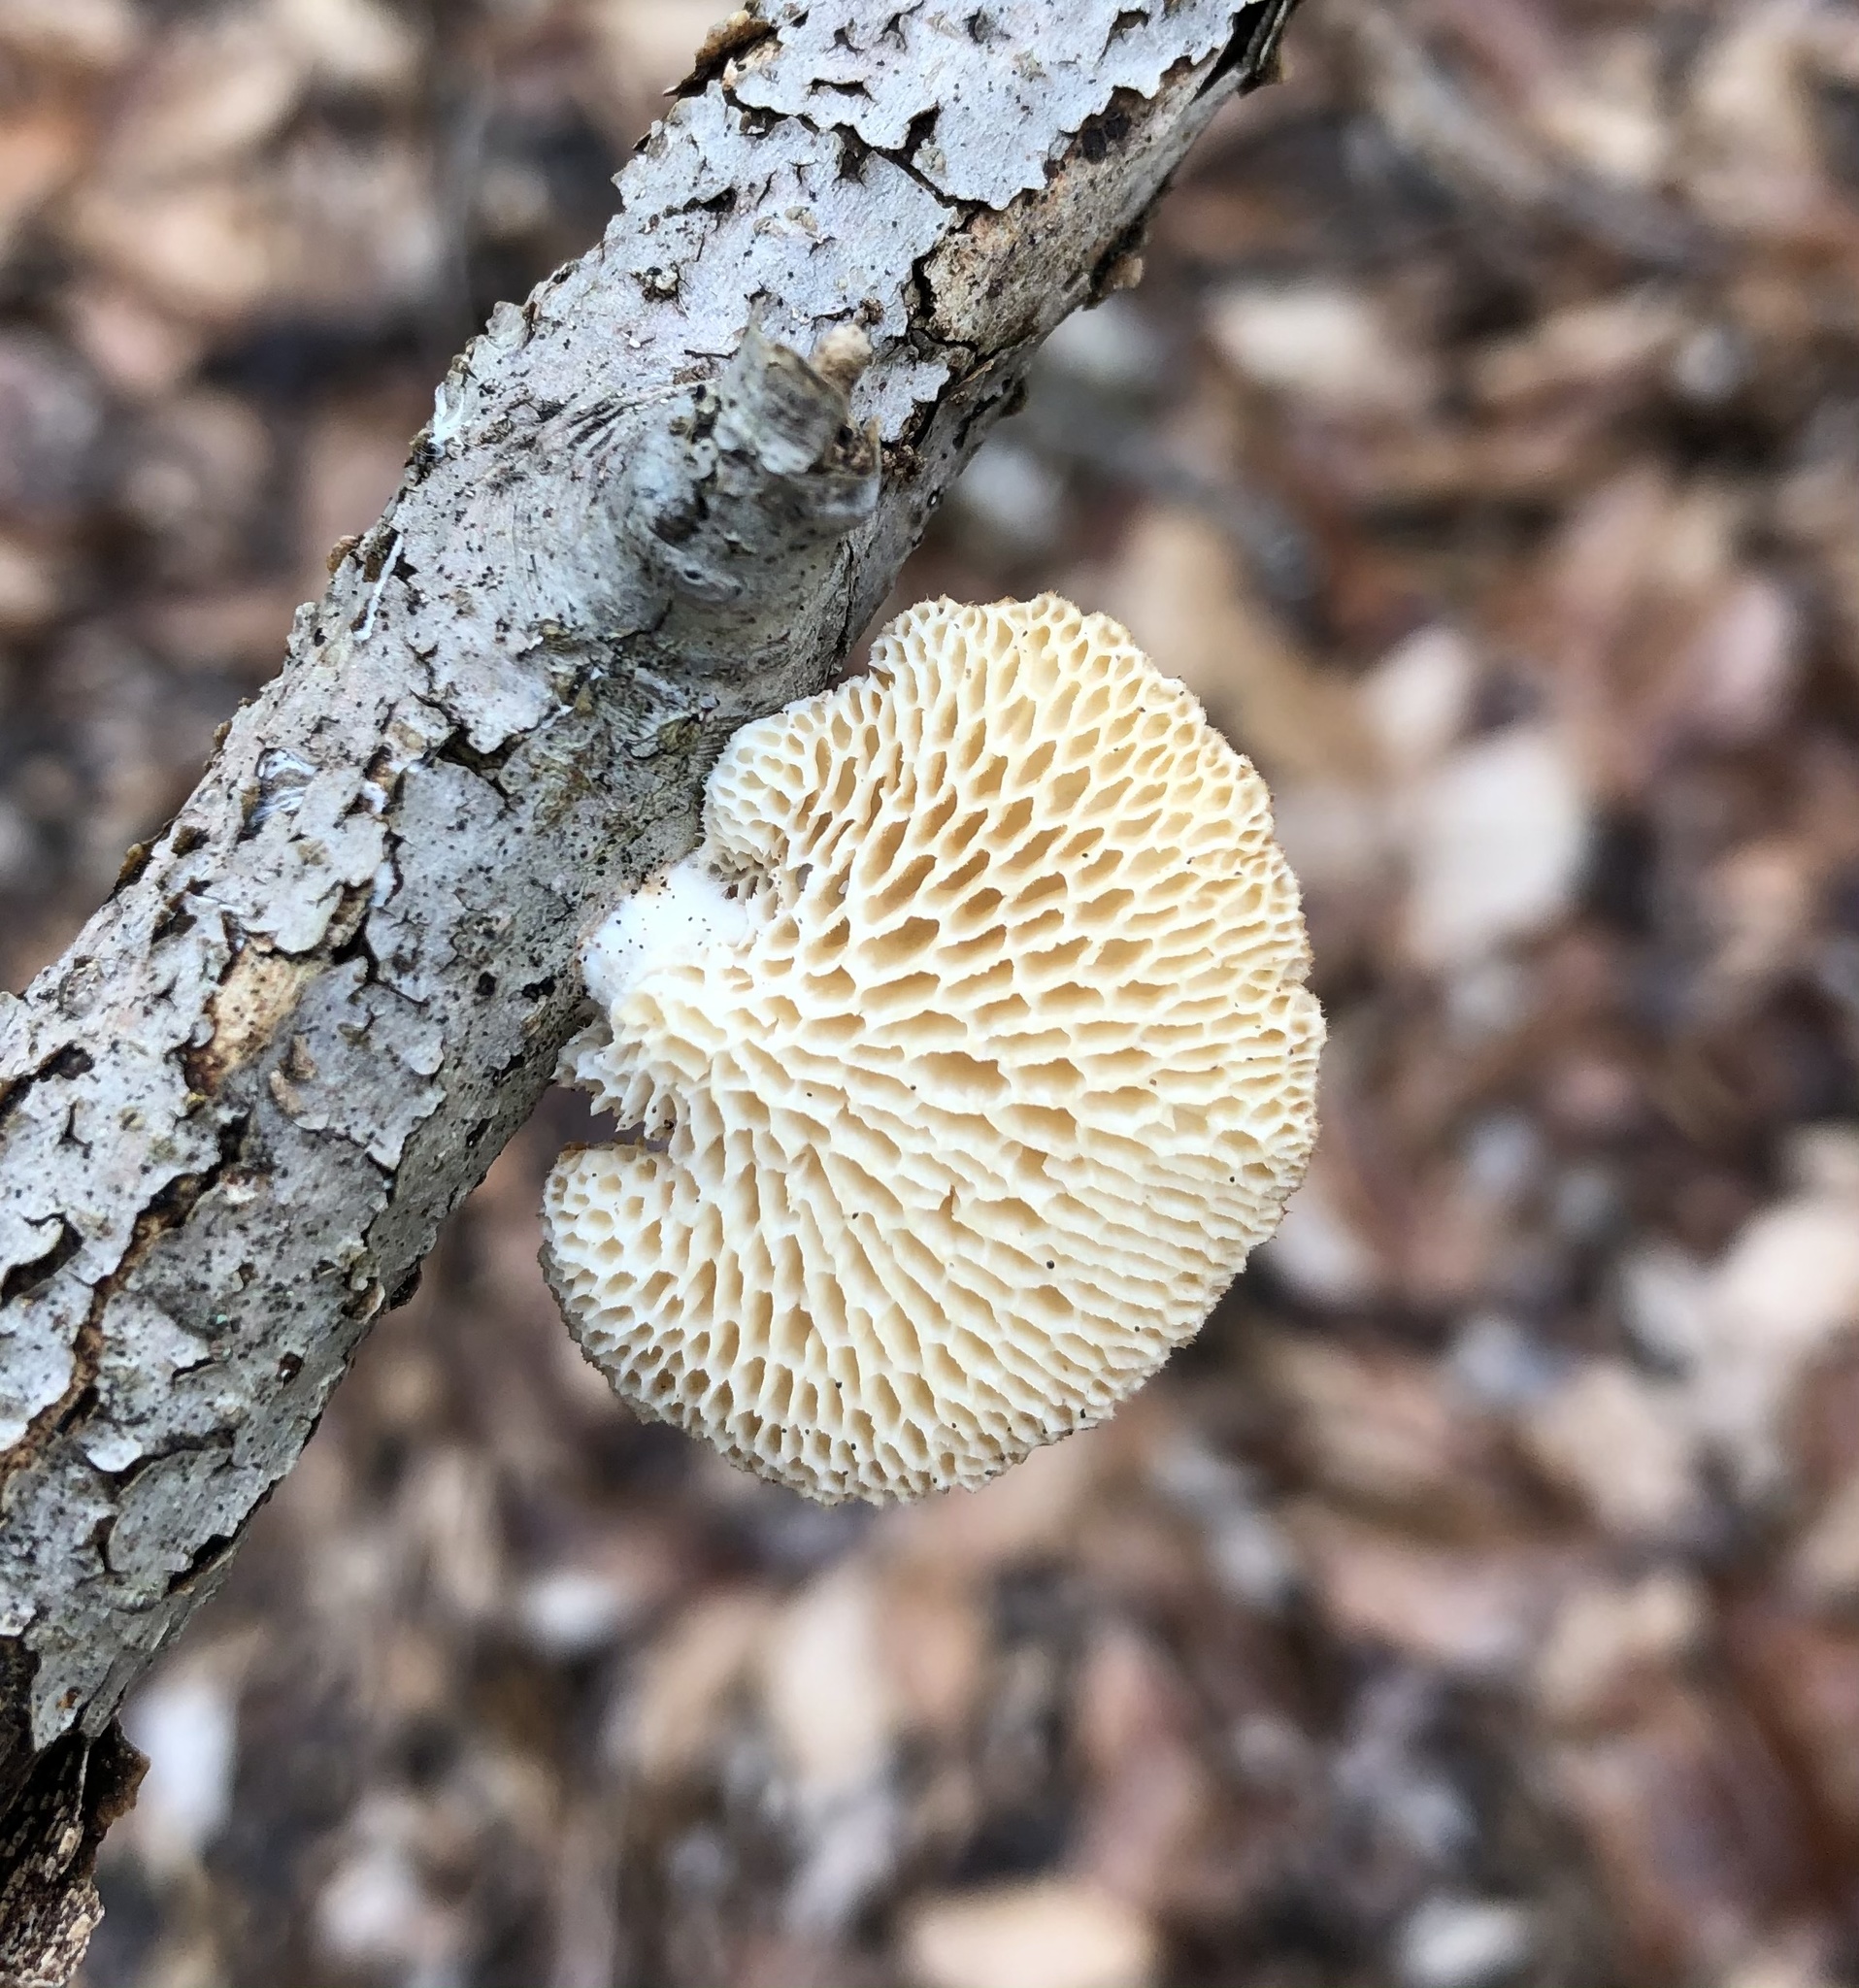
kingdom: Fungi
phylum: Basidiomycota
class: Agaricomycetes
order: Polyporales
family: Polyporaceae
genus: Neofavolus
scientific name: Neofavolus alveolaris
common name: Hexagonal-pored polypore
